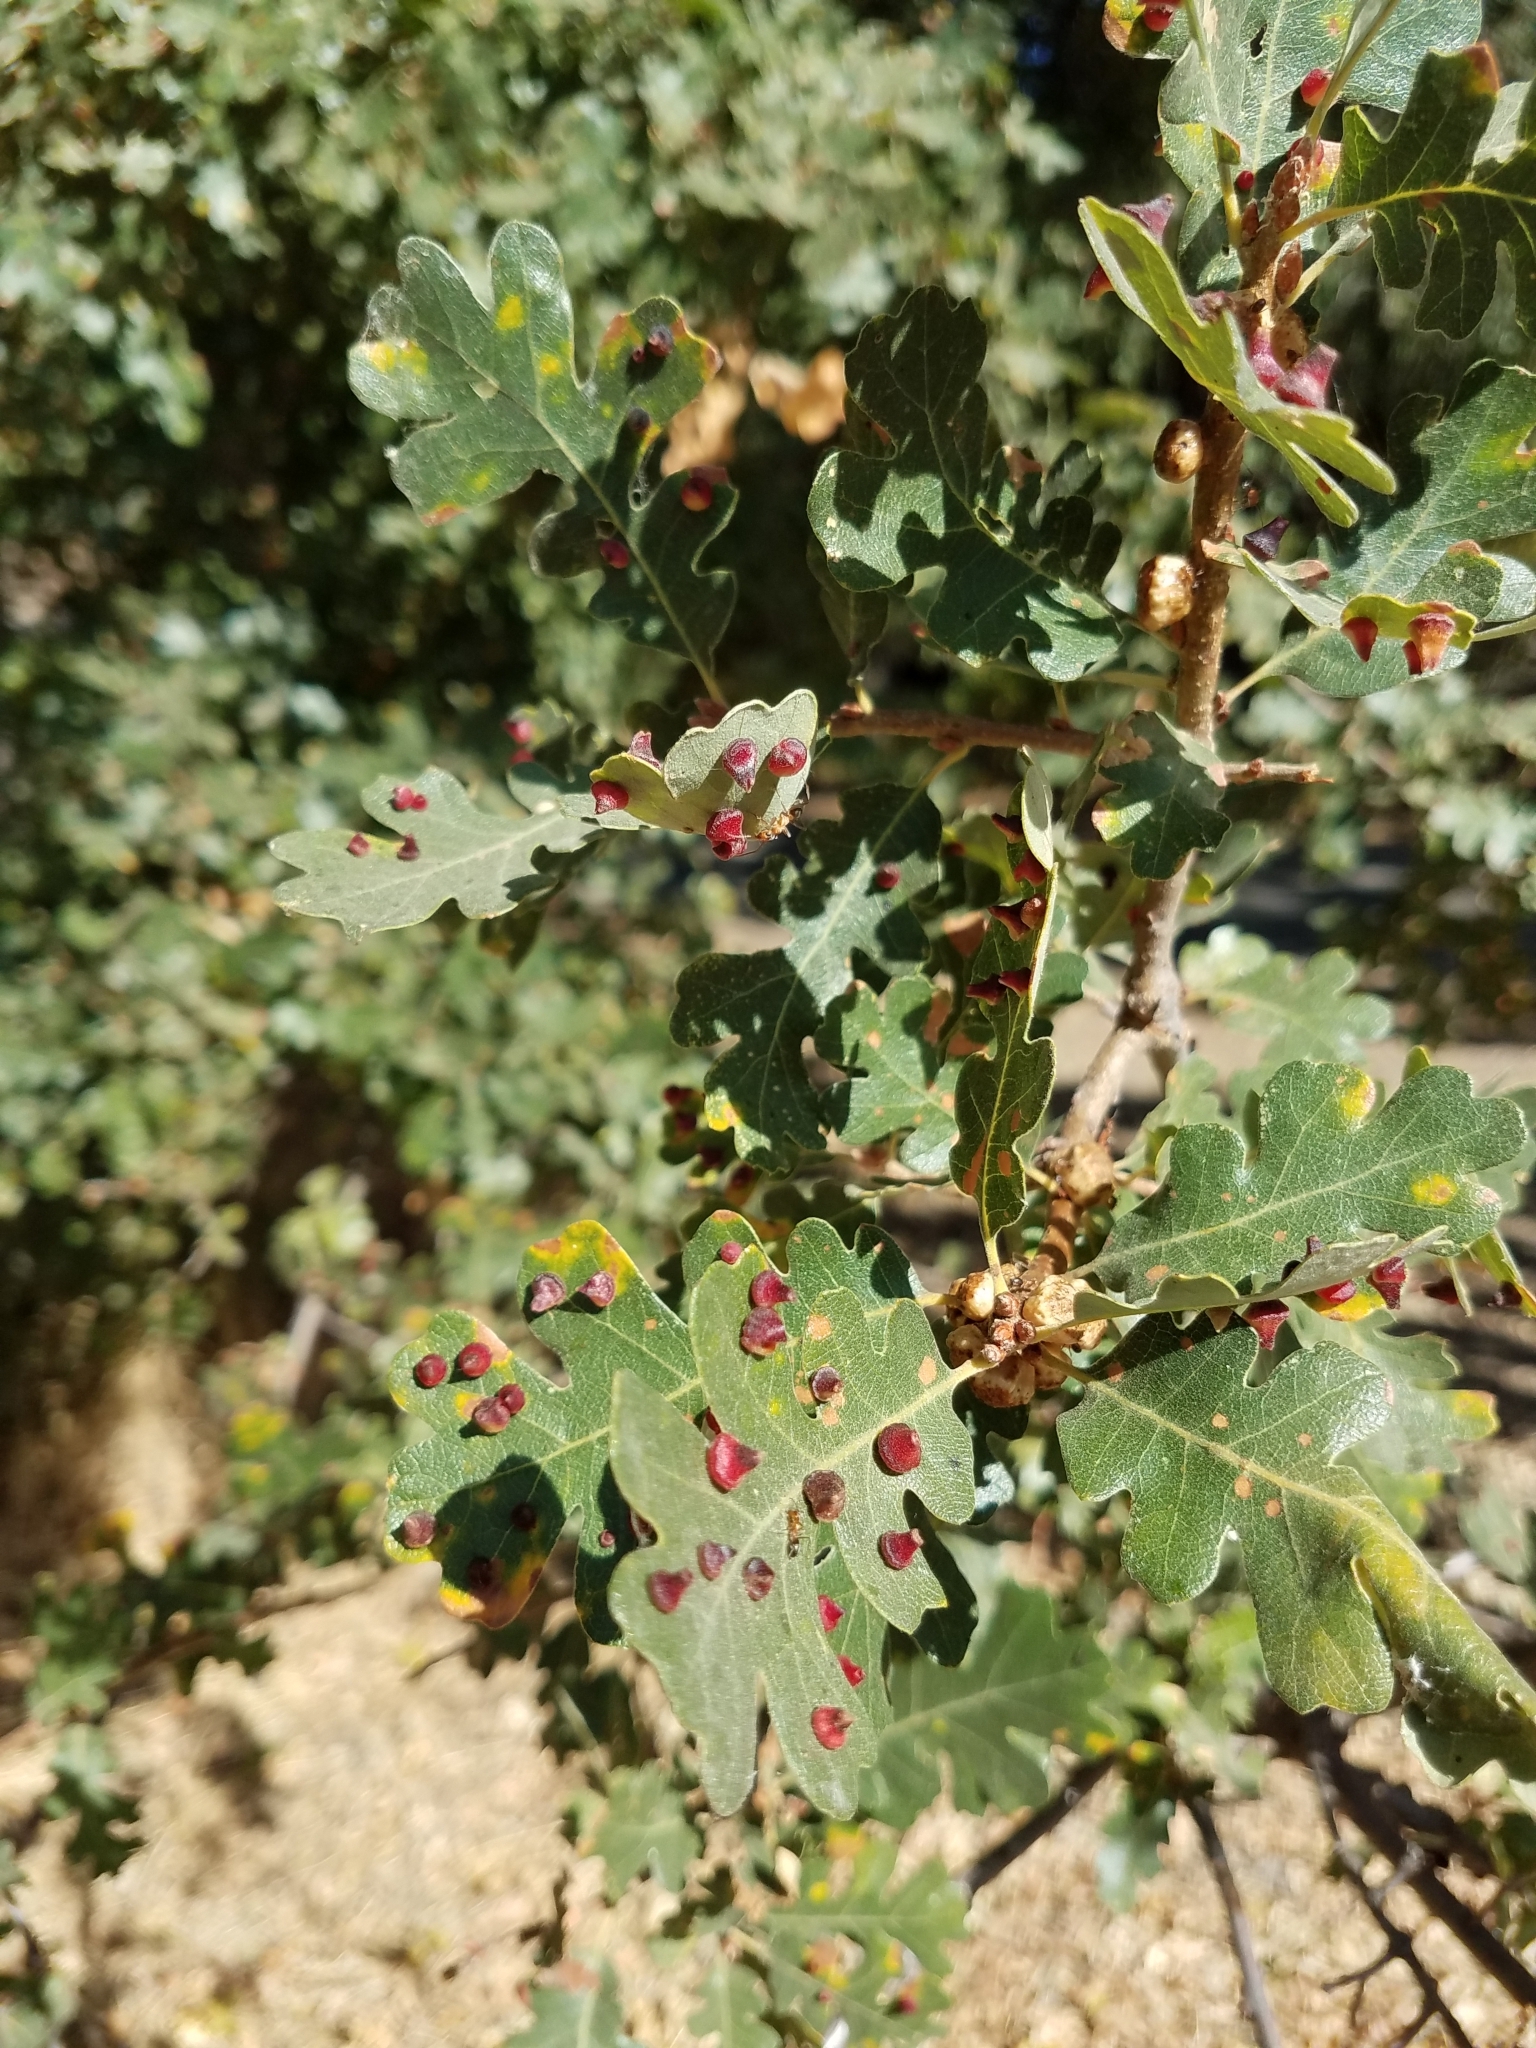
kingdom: Animalia
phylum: Arthropoda
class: Insecta
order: Hymenoptera
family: Cynipidae
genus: Andricus
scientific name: Andricus
